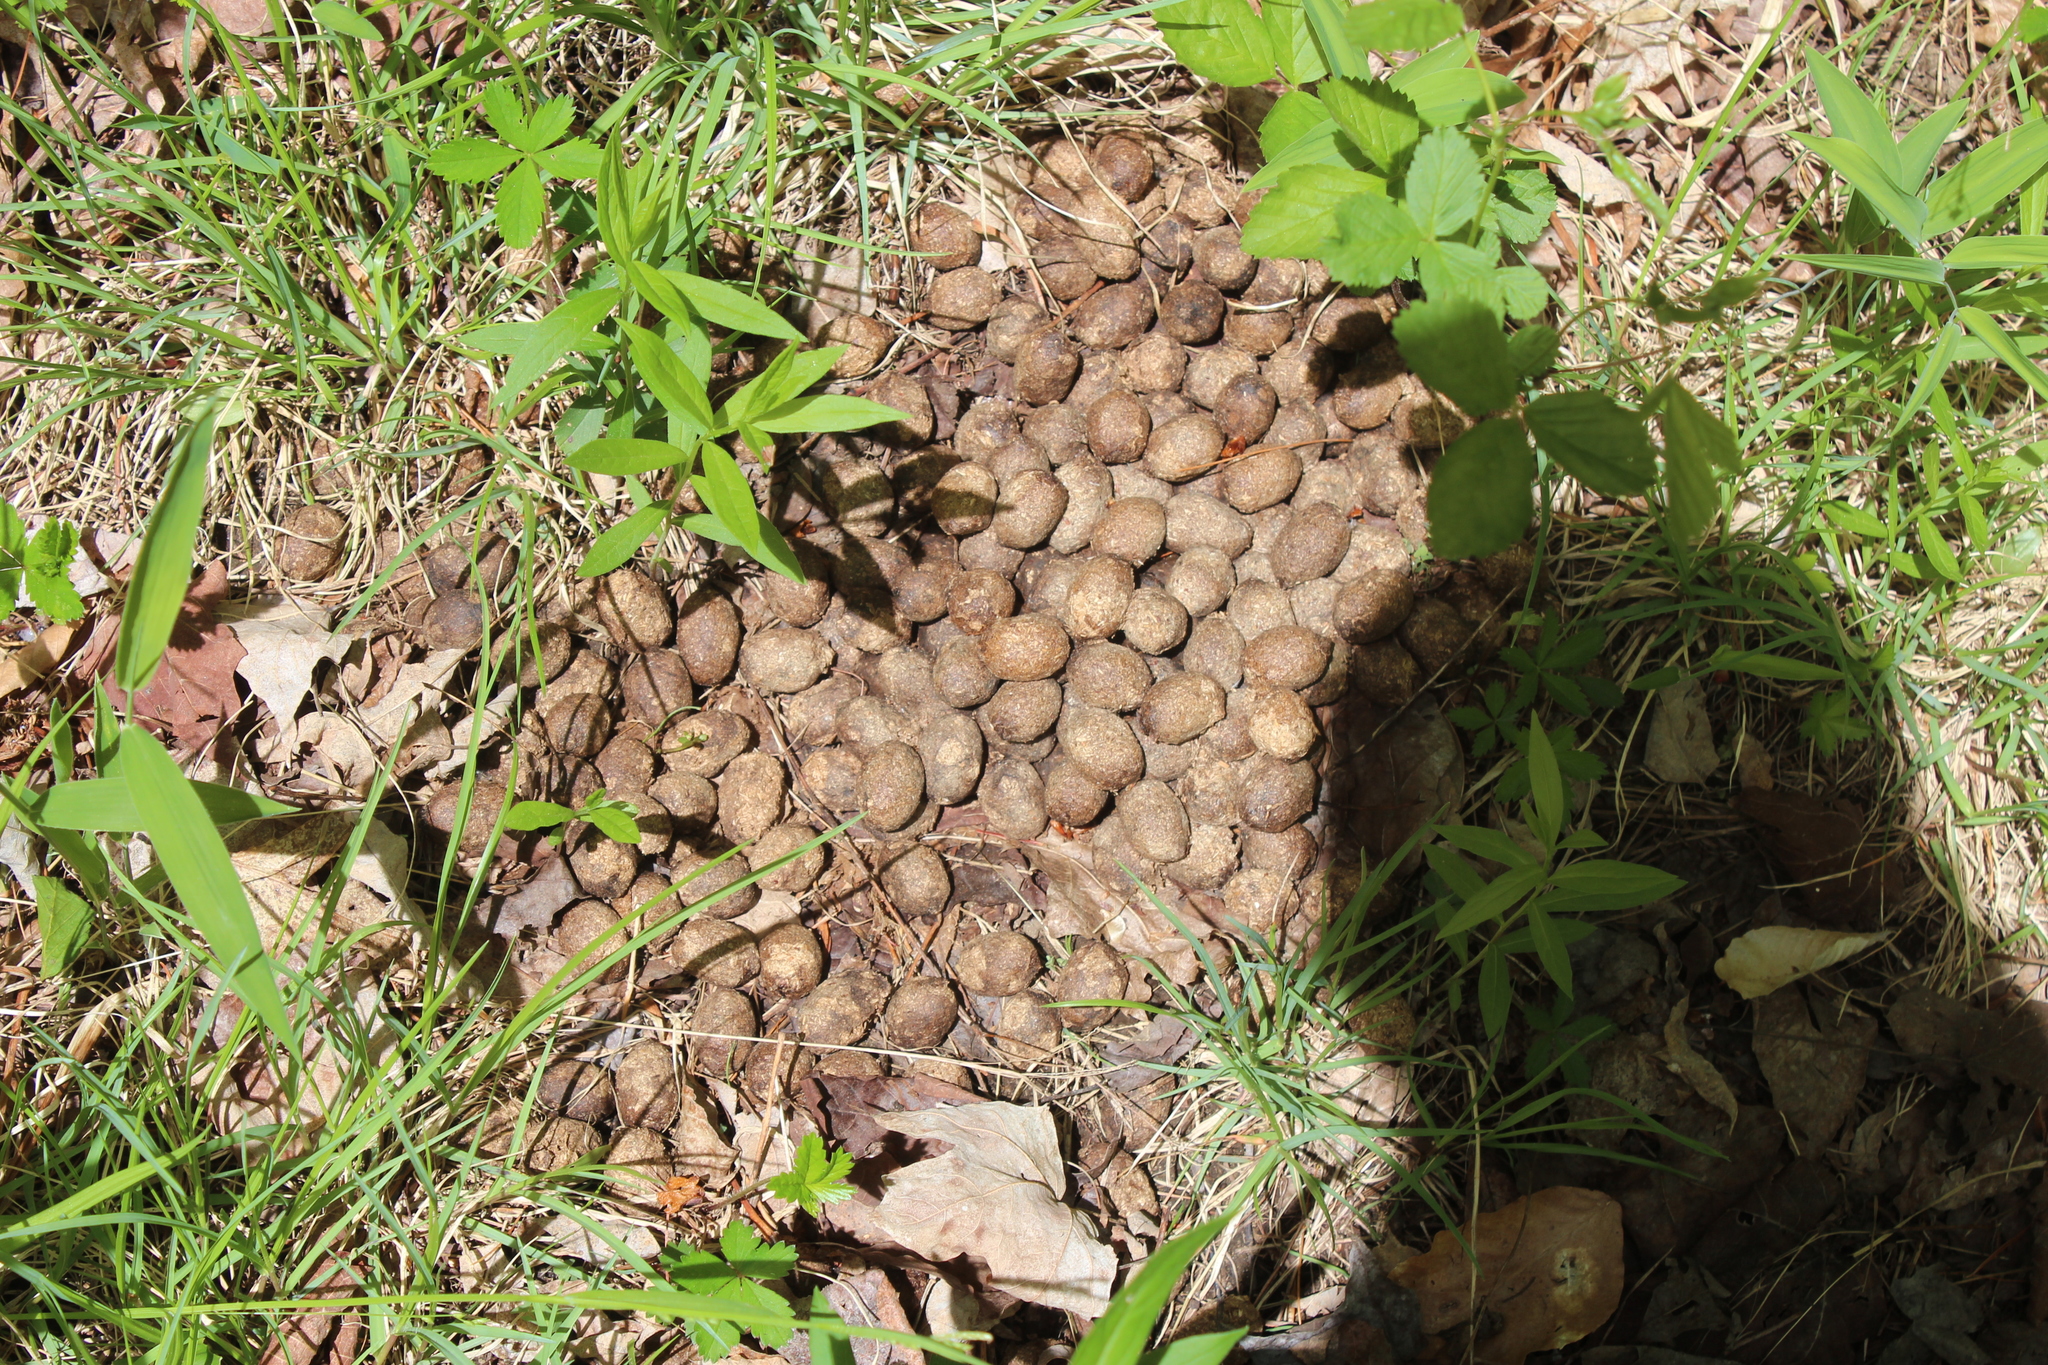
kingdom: Animalia
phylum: Chordata
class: Mammalia
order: Artiodactyla
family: Cervidae
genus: Alces
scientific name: Alces alces
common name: Moose
